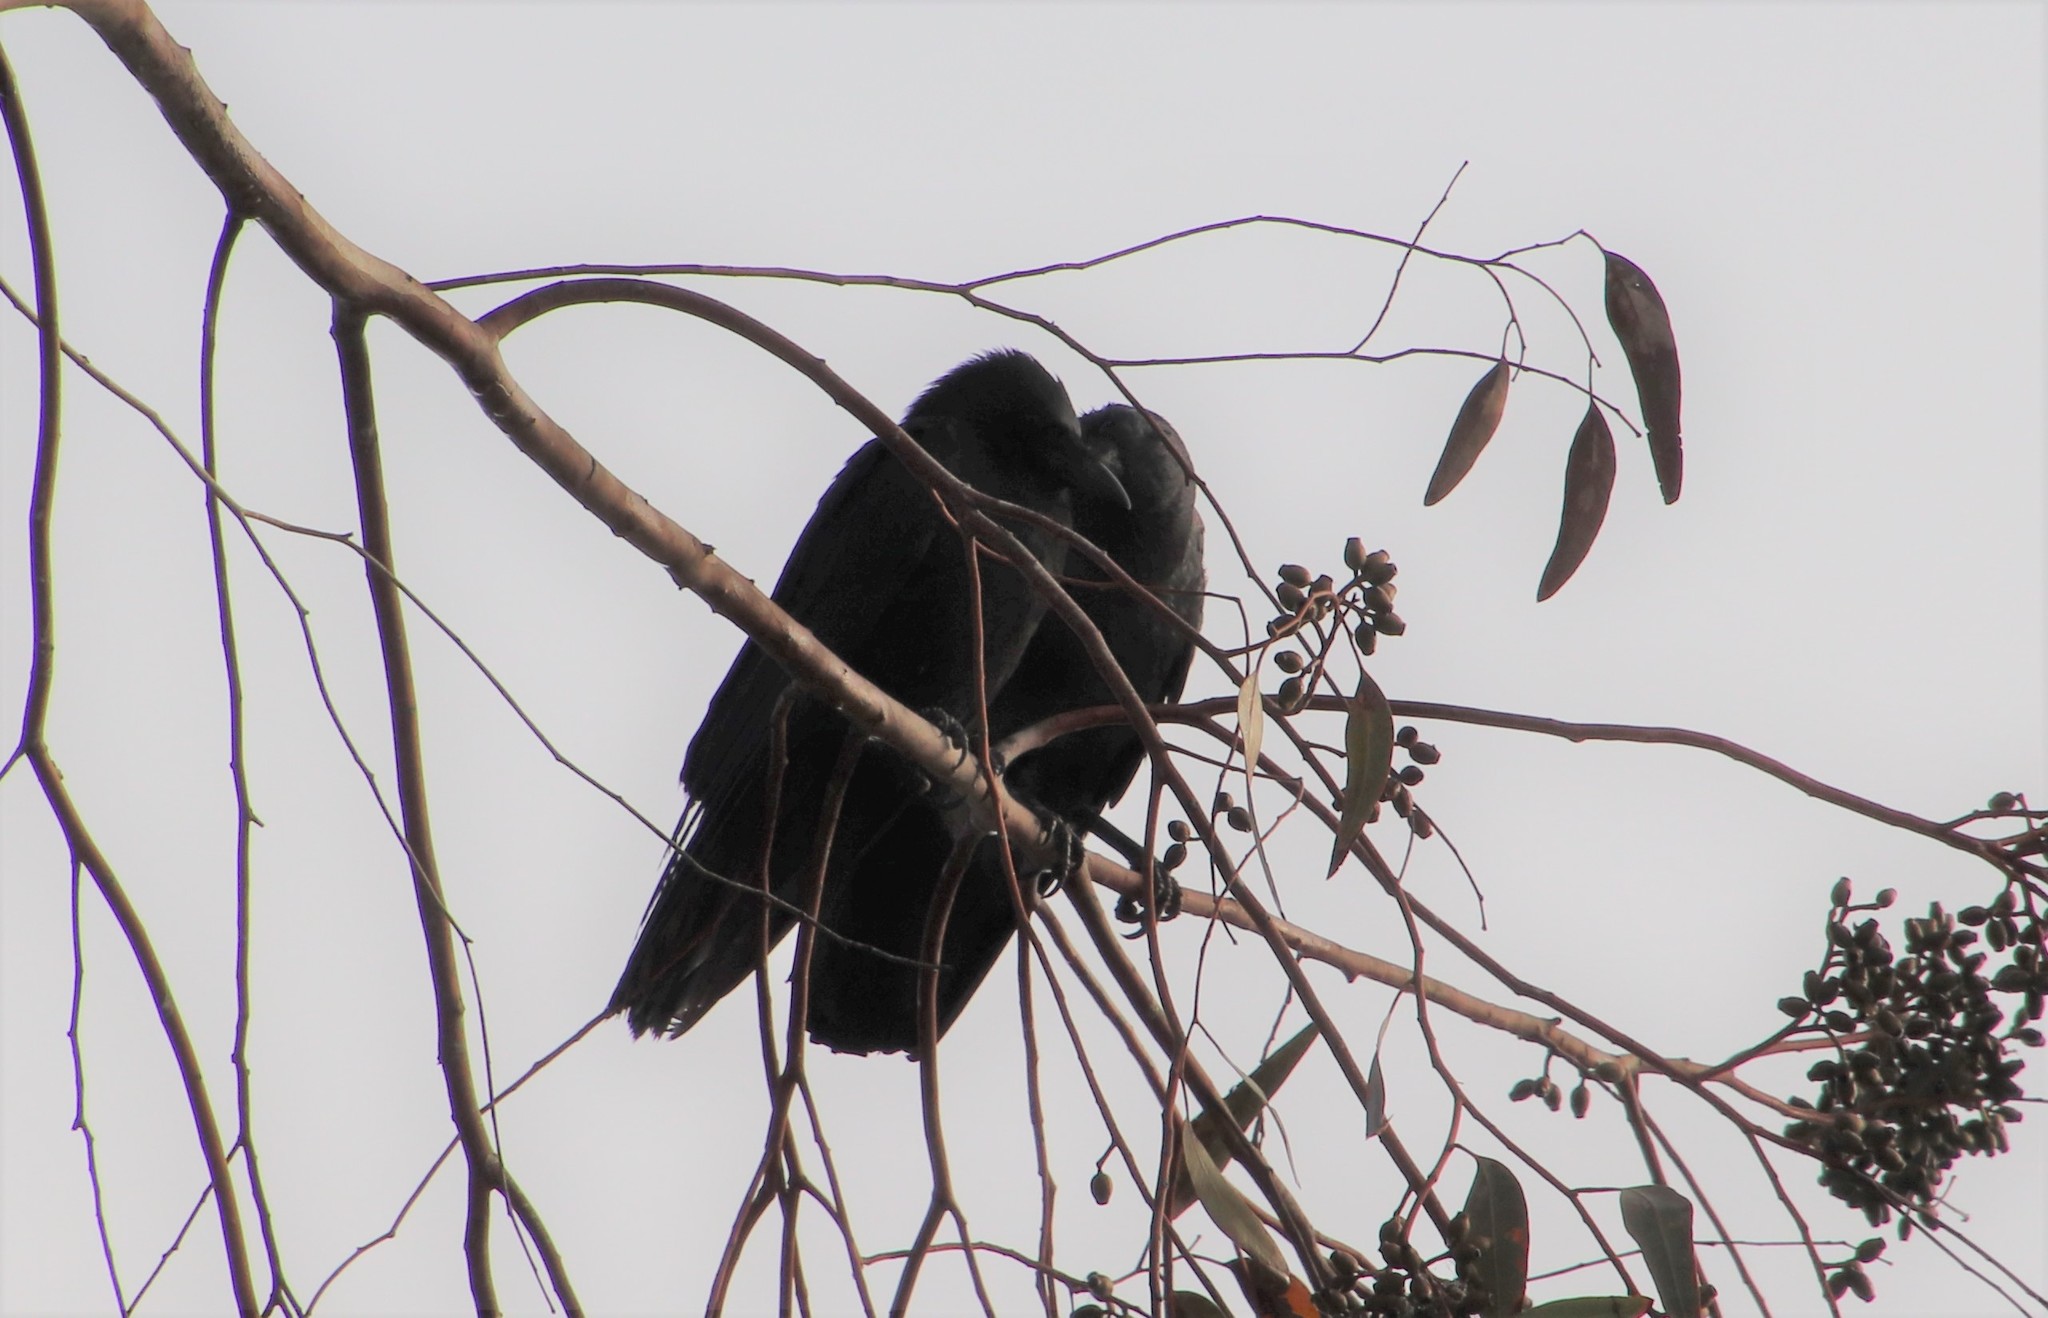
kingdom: Animalia
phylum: Chordata
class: Aves
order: Passeriformes
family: Corvidae
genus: Corvus
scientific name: Corvus brachyrhynchos
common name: American crow
